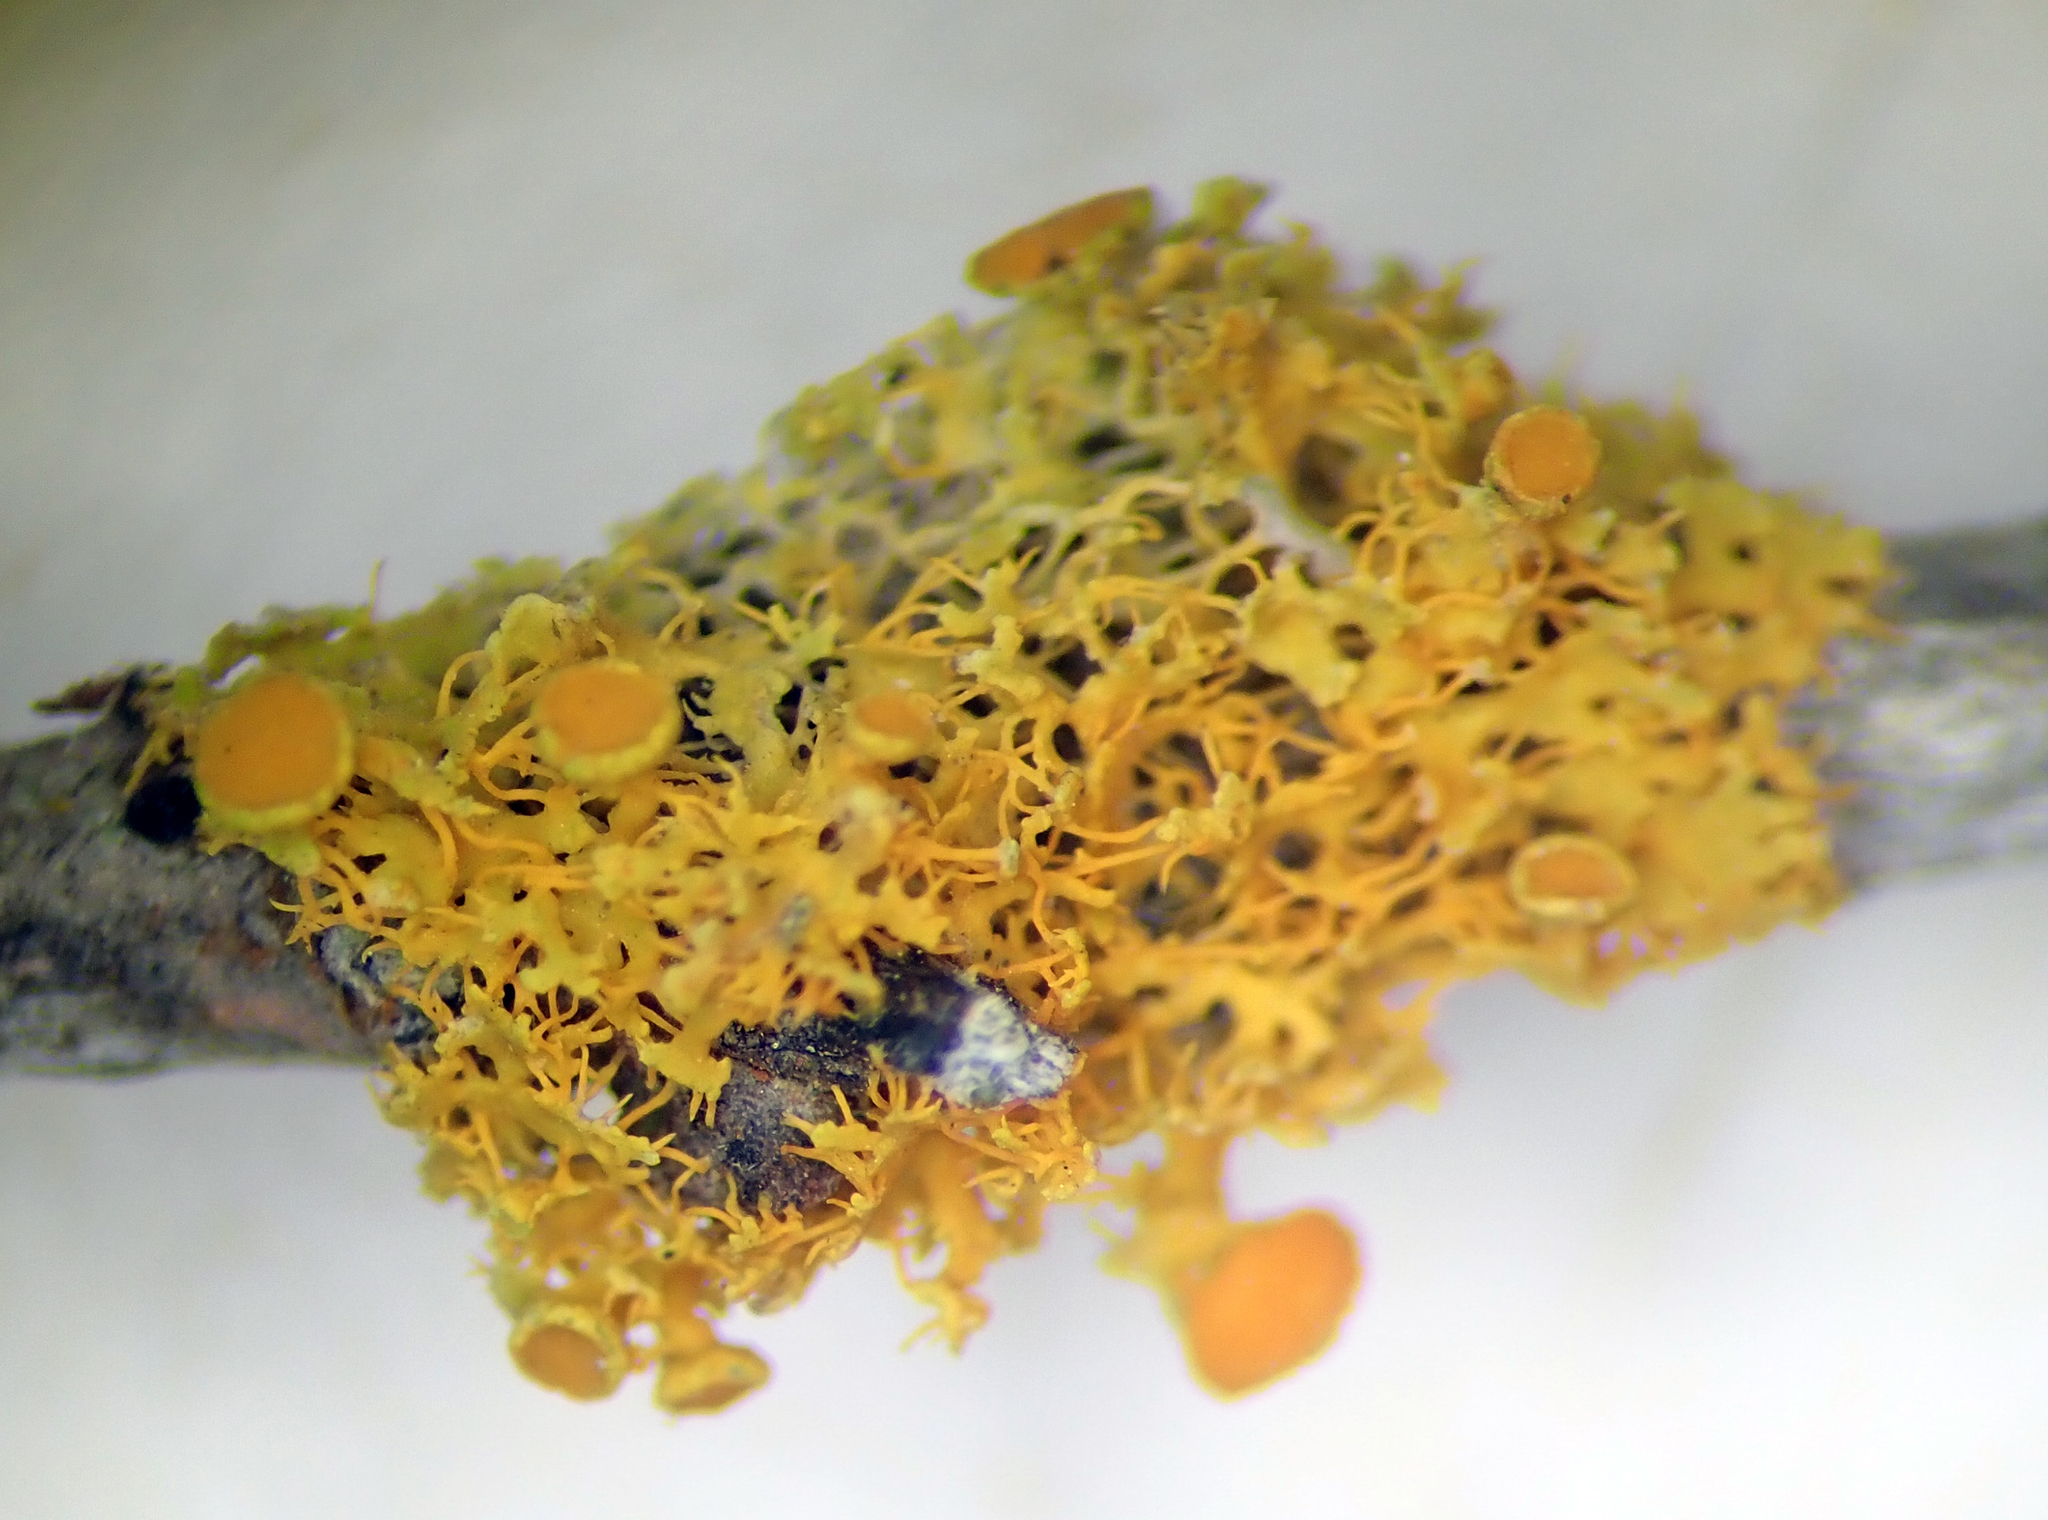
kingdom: Fungi
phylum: Ascomycota
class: Lecanoromycetes
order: Teloschistales
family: Teloschistaceae
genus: Teloschistes
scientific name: Teloschistes sieberianus
